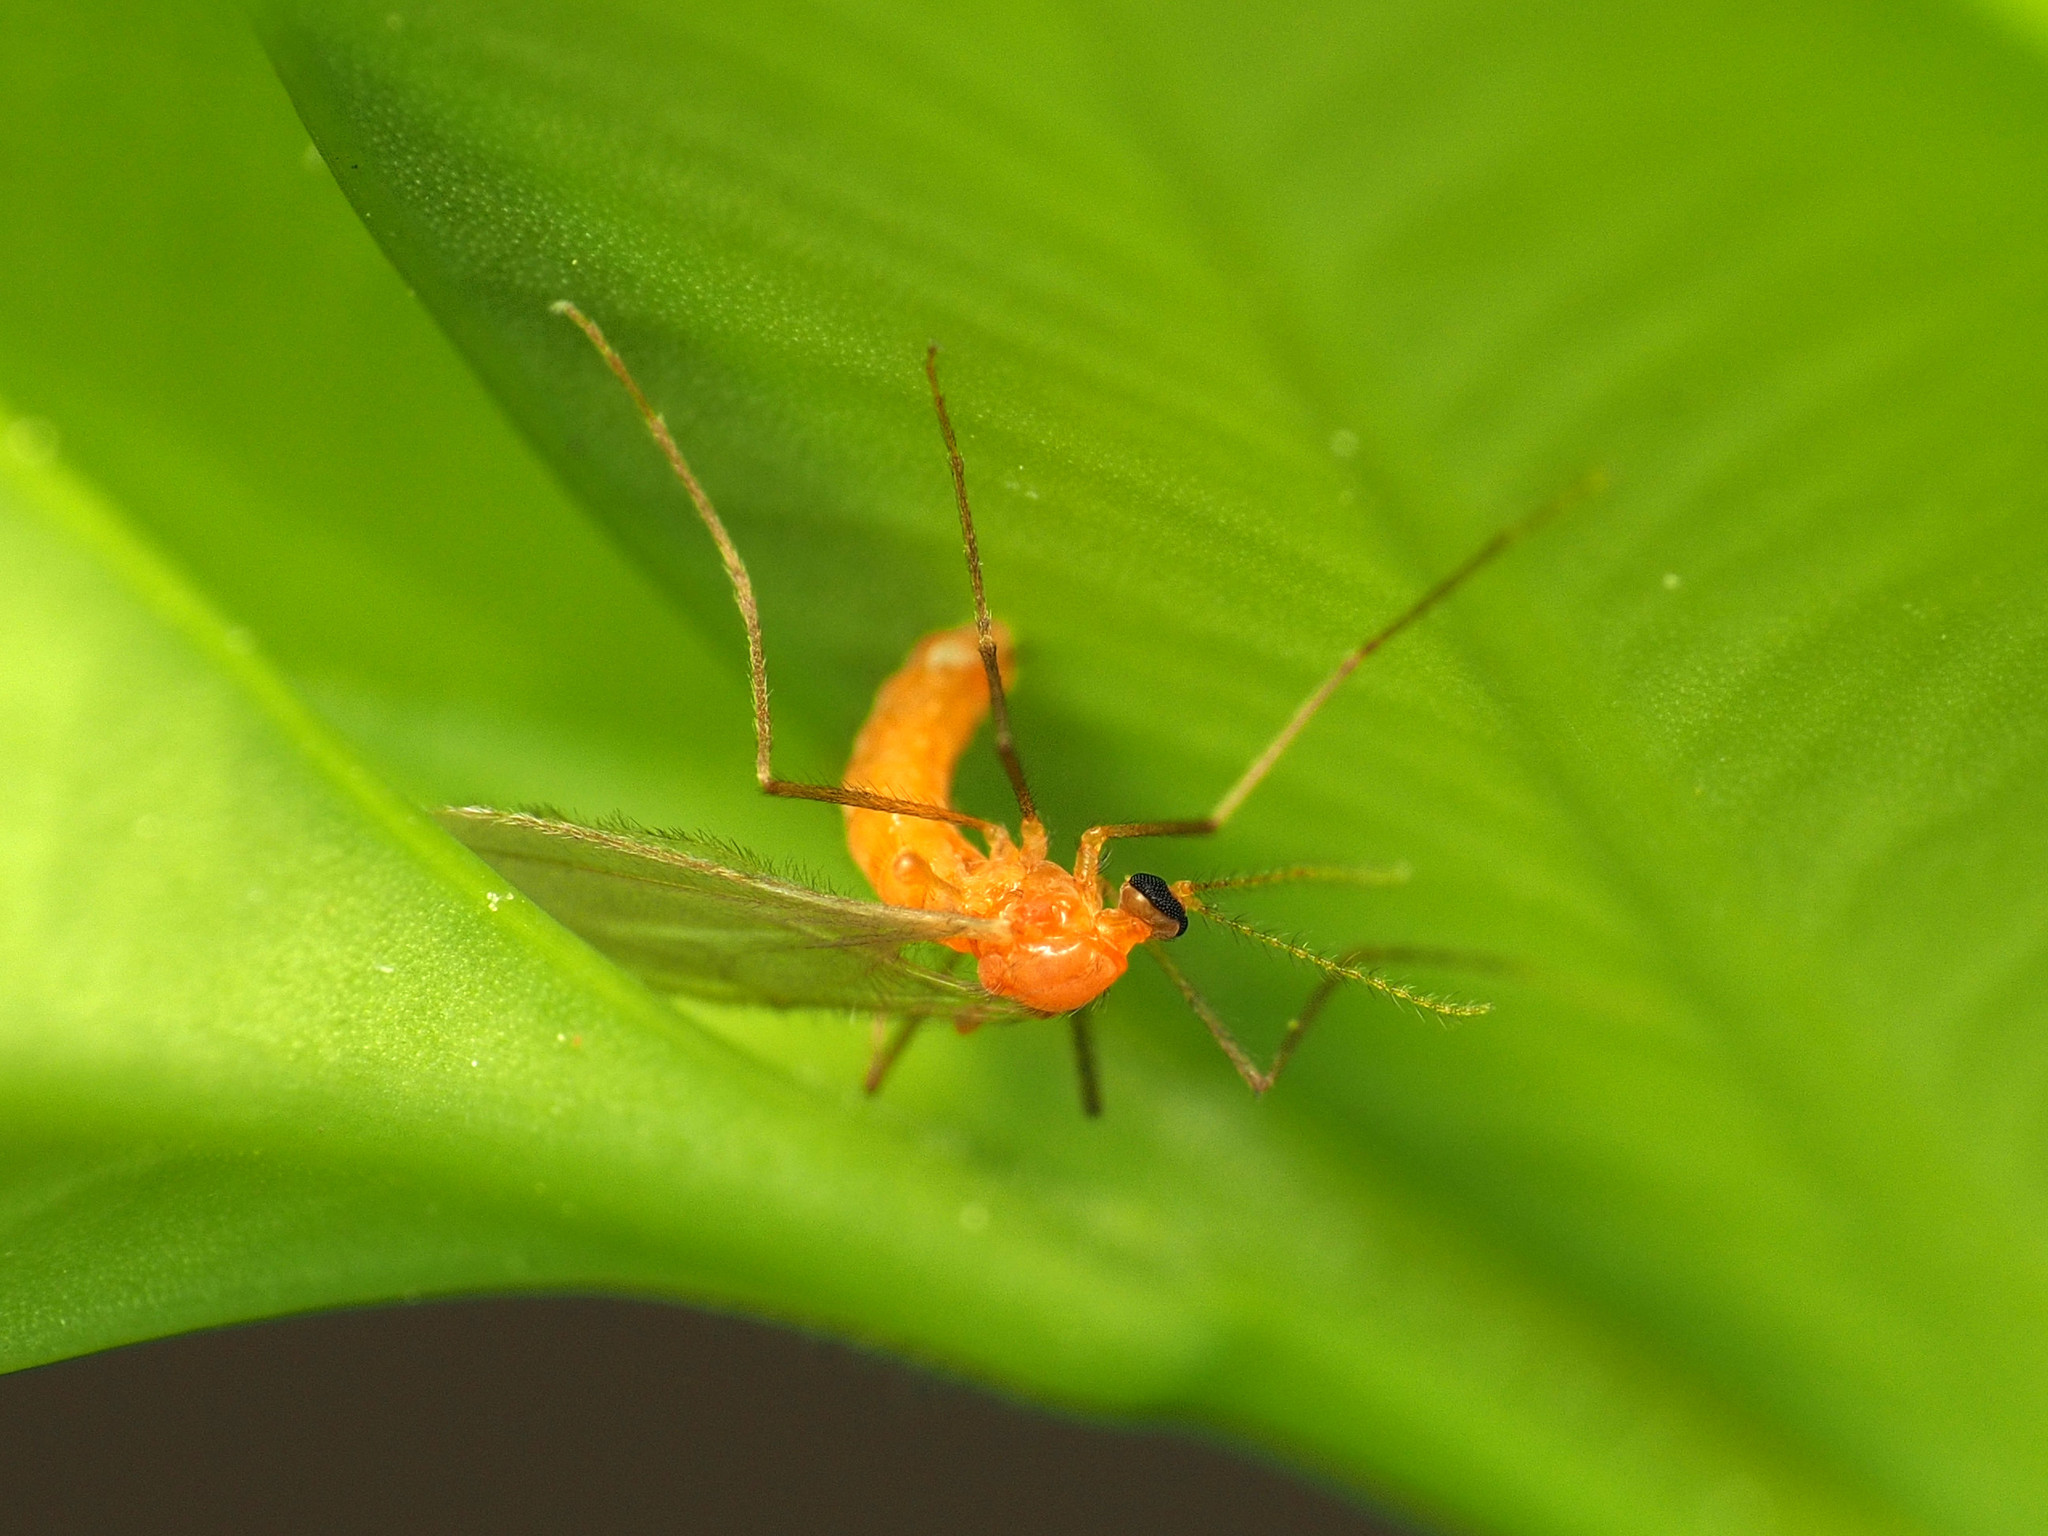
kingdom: Animalia
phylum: Arthropoda
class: Insecta
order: Diptera
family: Cecidomyiidae
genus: Monarthropalpus
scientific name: Monarthropalpus flavus
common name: Boxwood leafminer
